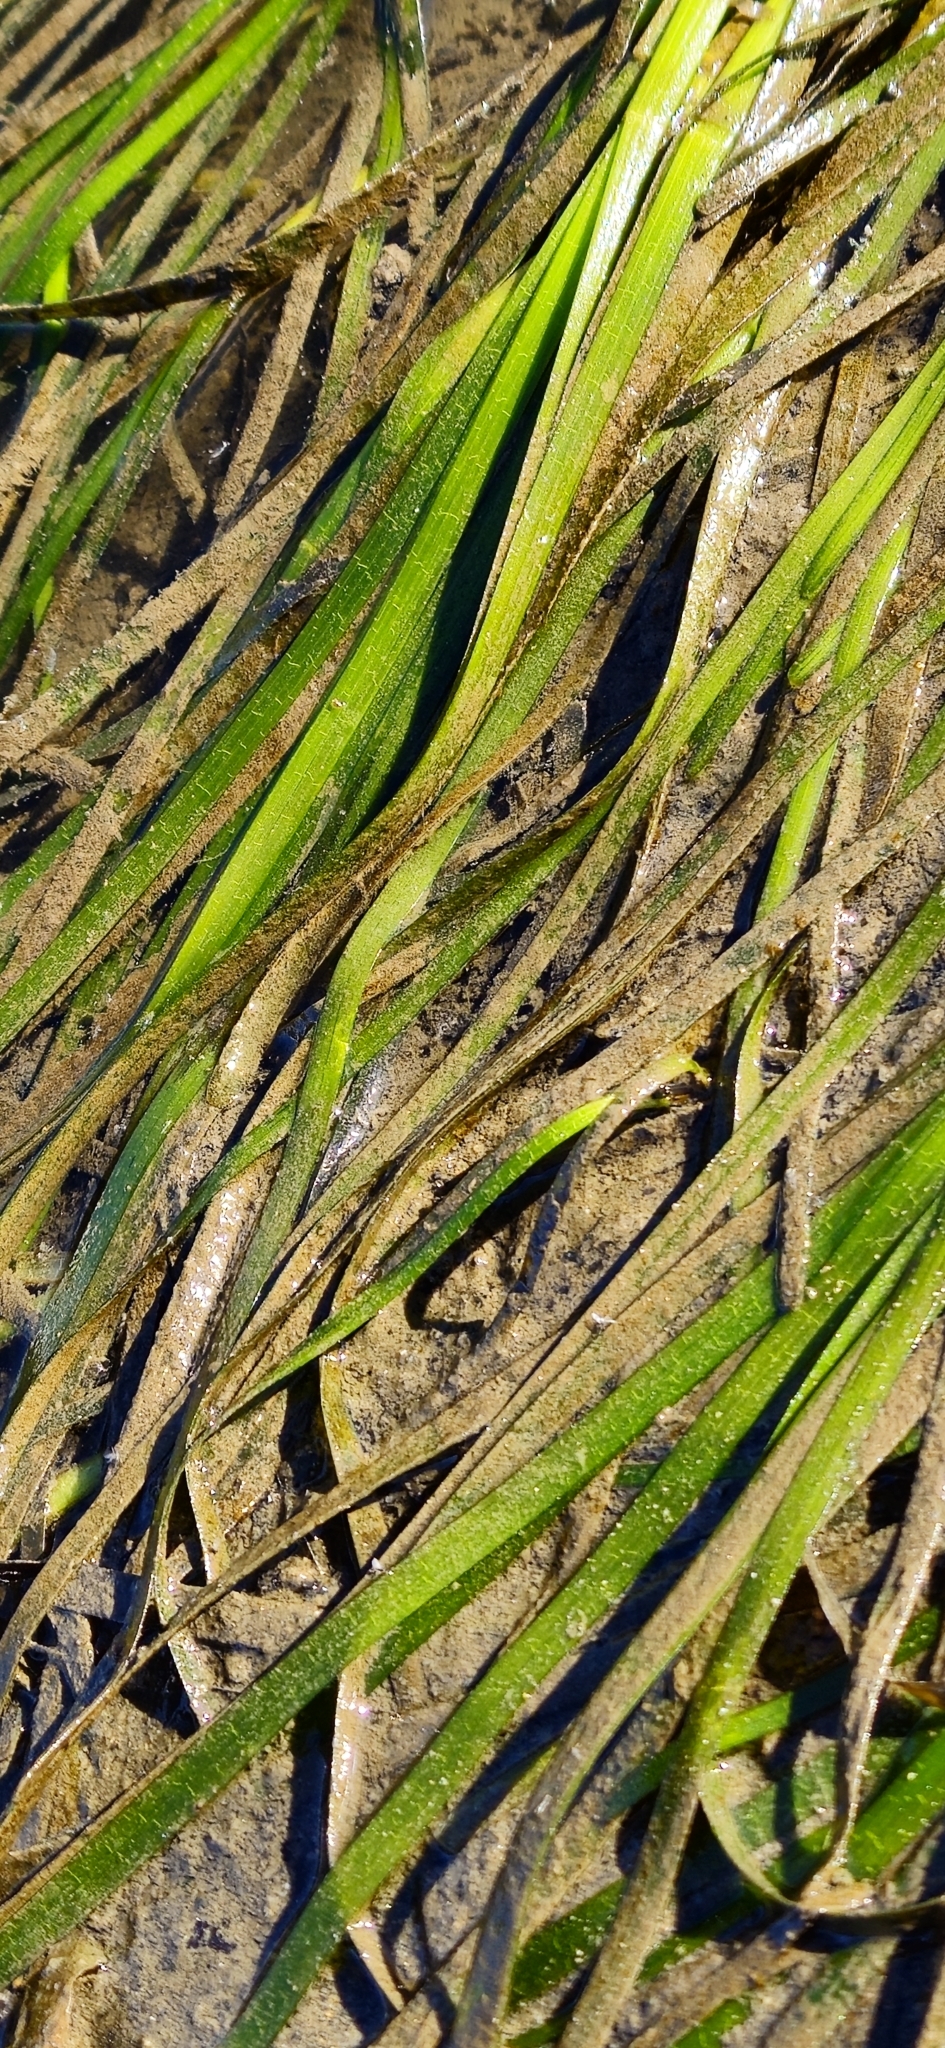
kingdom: Plantae
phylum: Tracheophyta
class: Liliopsida
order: Alismatales
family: Zosteraceae
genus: Zostera
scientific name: Zostera marina
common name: Eelgrass
